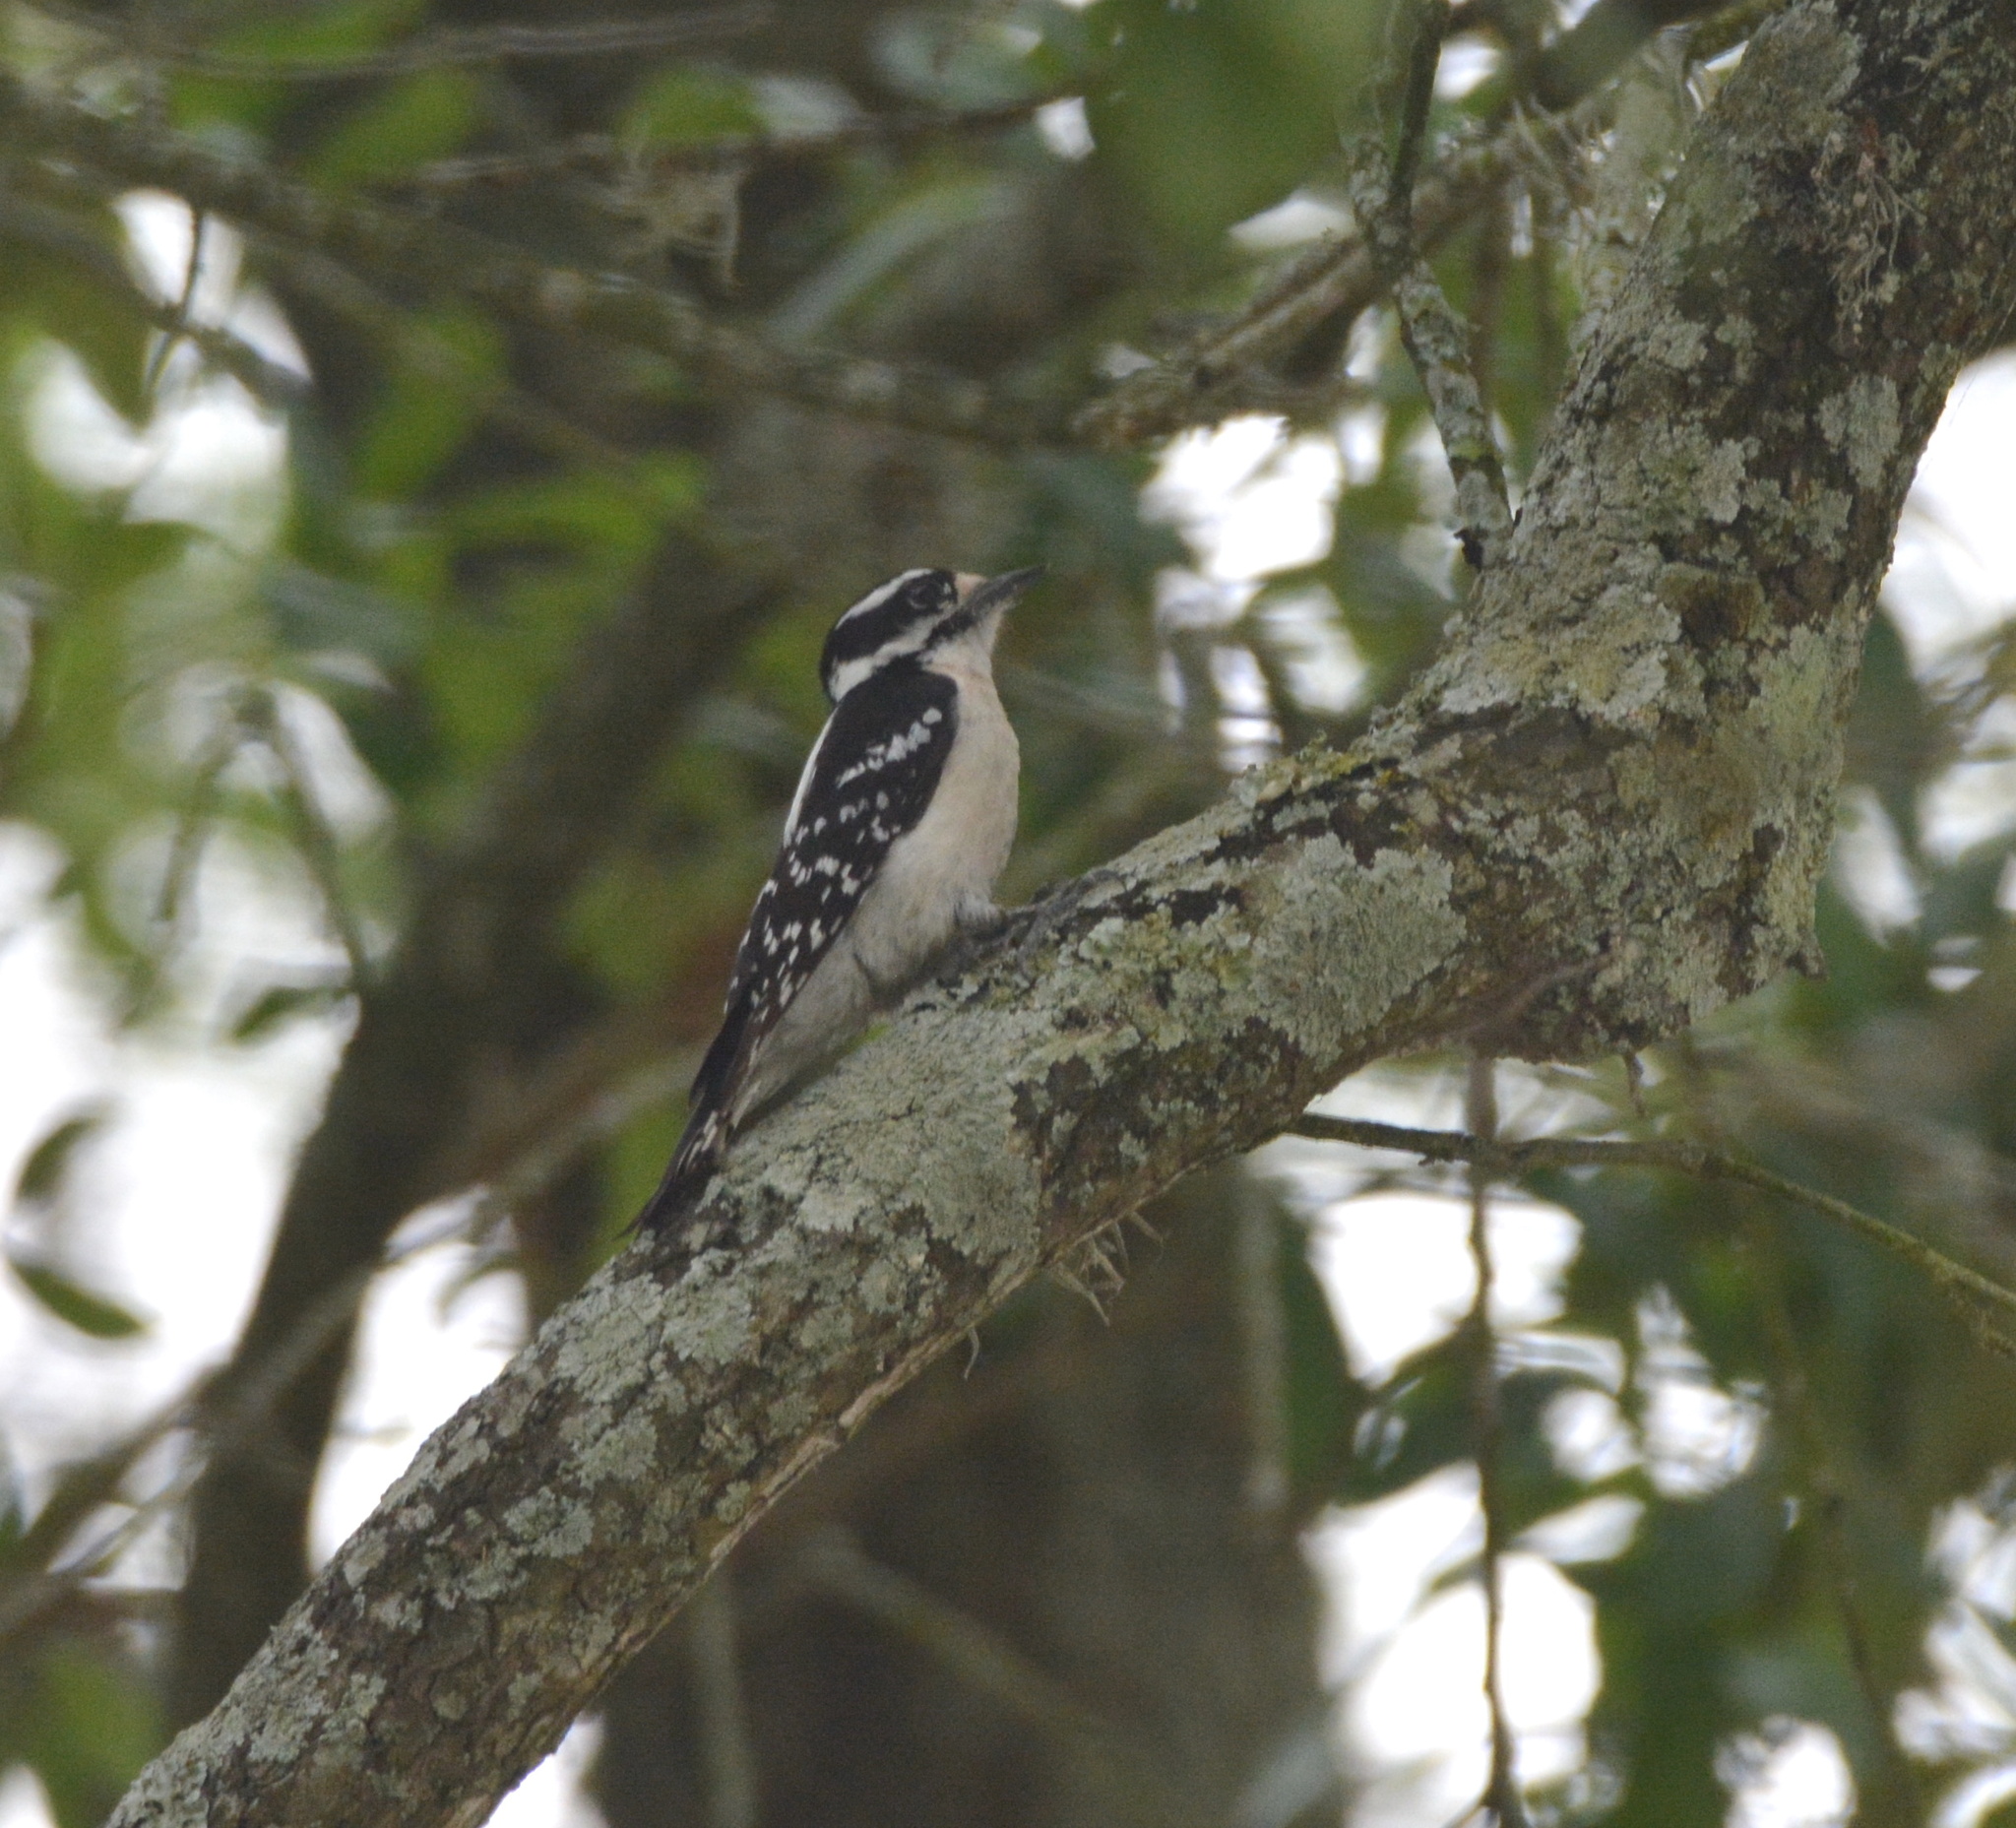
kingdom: Animalia
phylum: Chordata
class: Aves
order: Piciformes
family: Picidae
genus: Dryobates
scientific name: Dryobates pubescens
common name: Downy woodpecker
